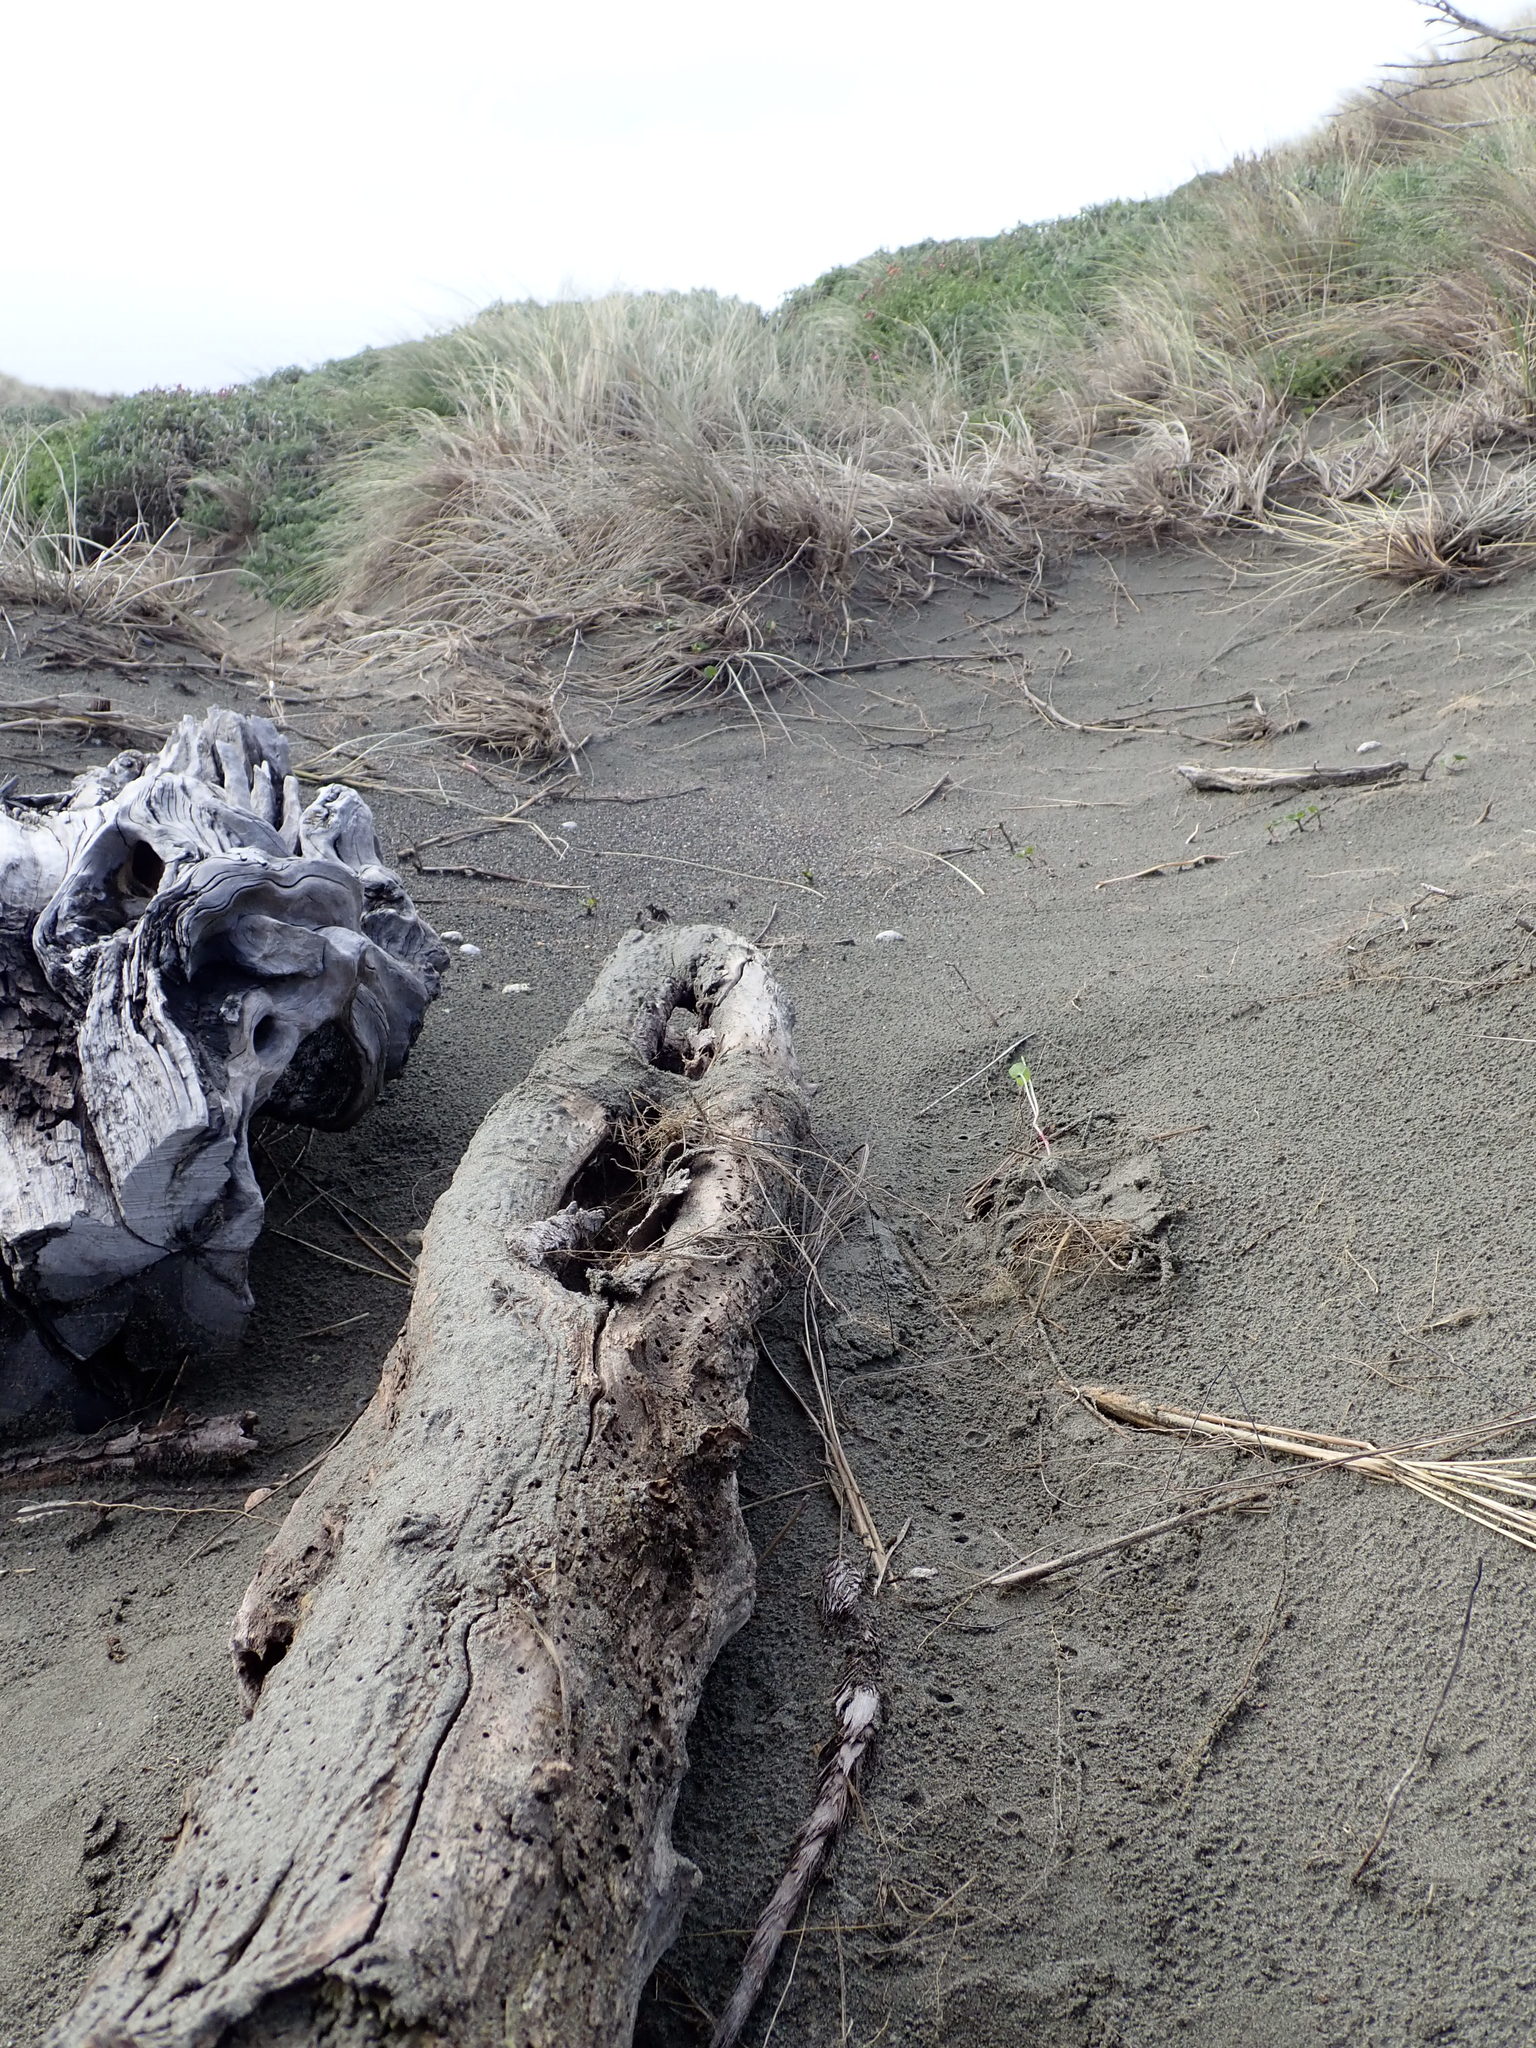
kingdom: Animalia
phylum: Arthropoda
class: Insecta
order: Blattodea
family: Blattidae
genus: Maoriblatta
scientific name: Maoriblatta novaeseelandiae
